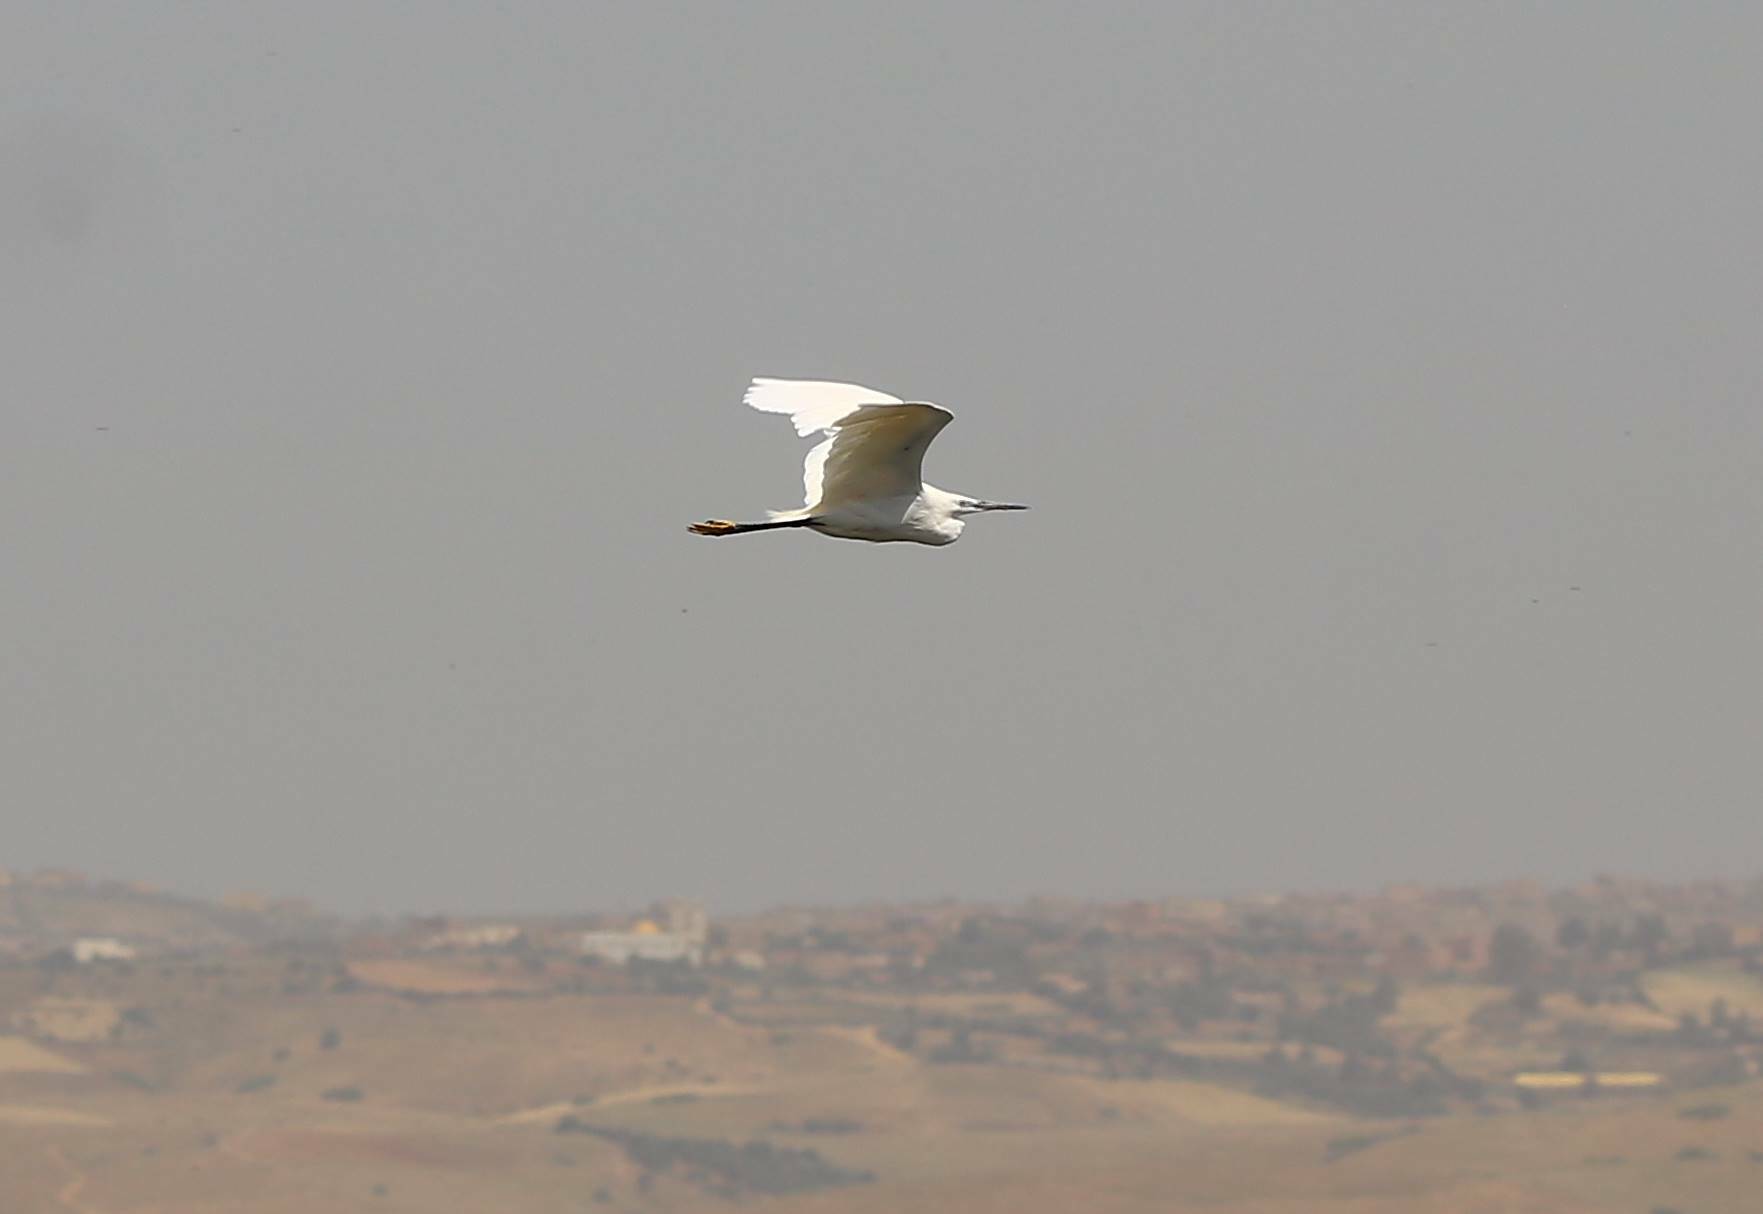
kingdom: Animalia
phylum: Chordata
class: Aves
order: Pelecaniformes
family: Ardeidae
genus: Egretta
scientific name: Egretta garzetta
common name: Little egret
